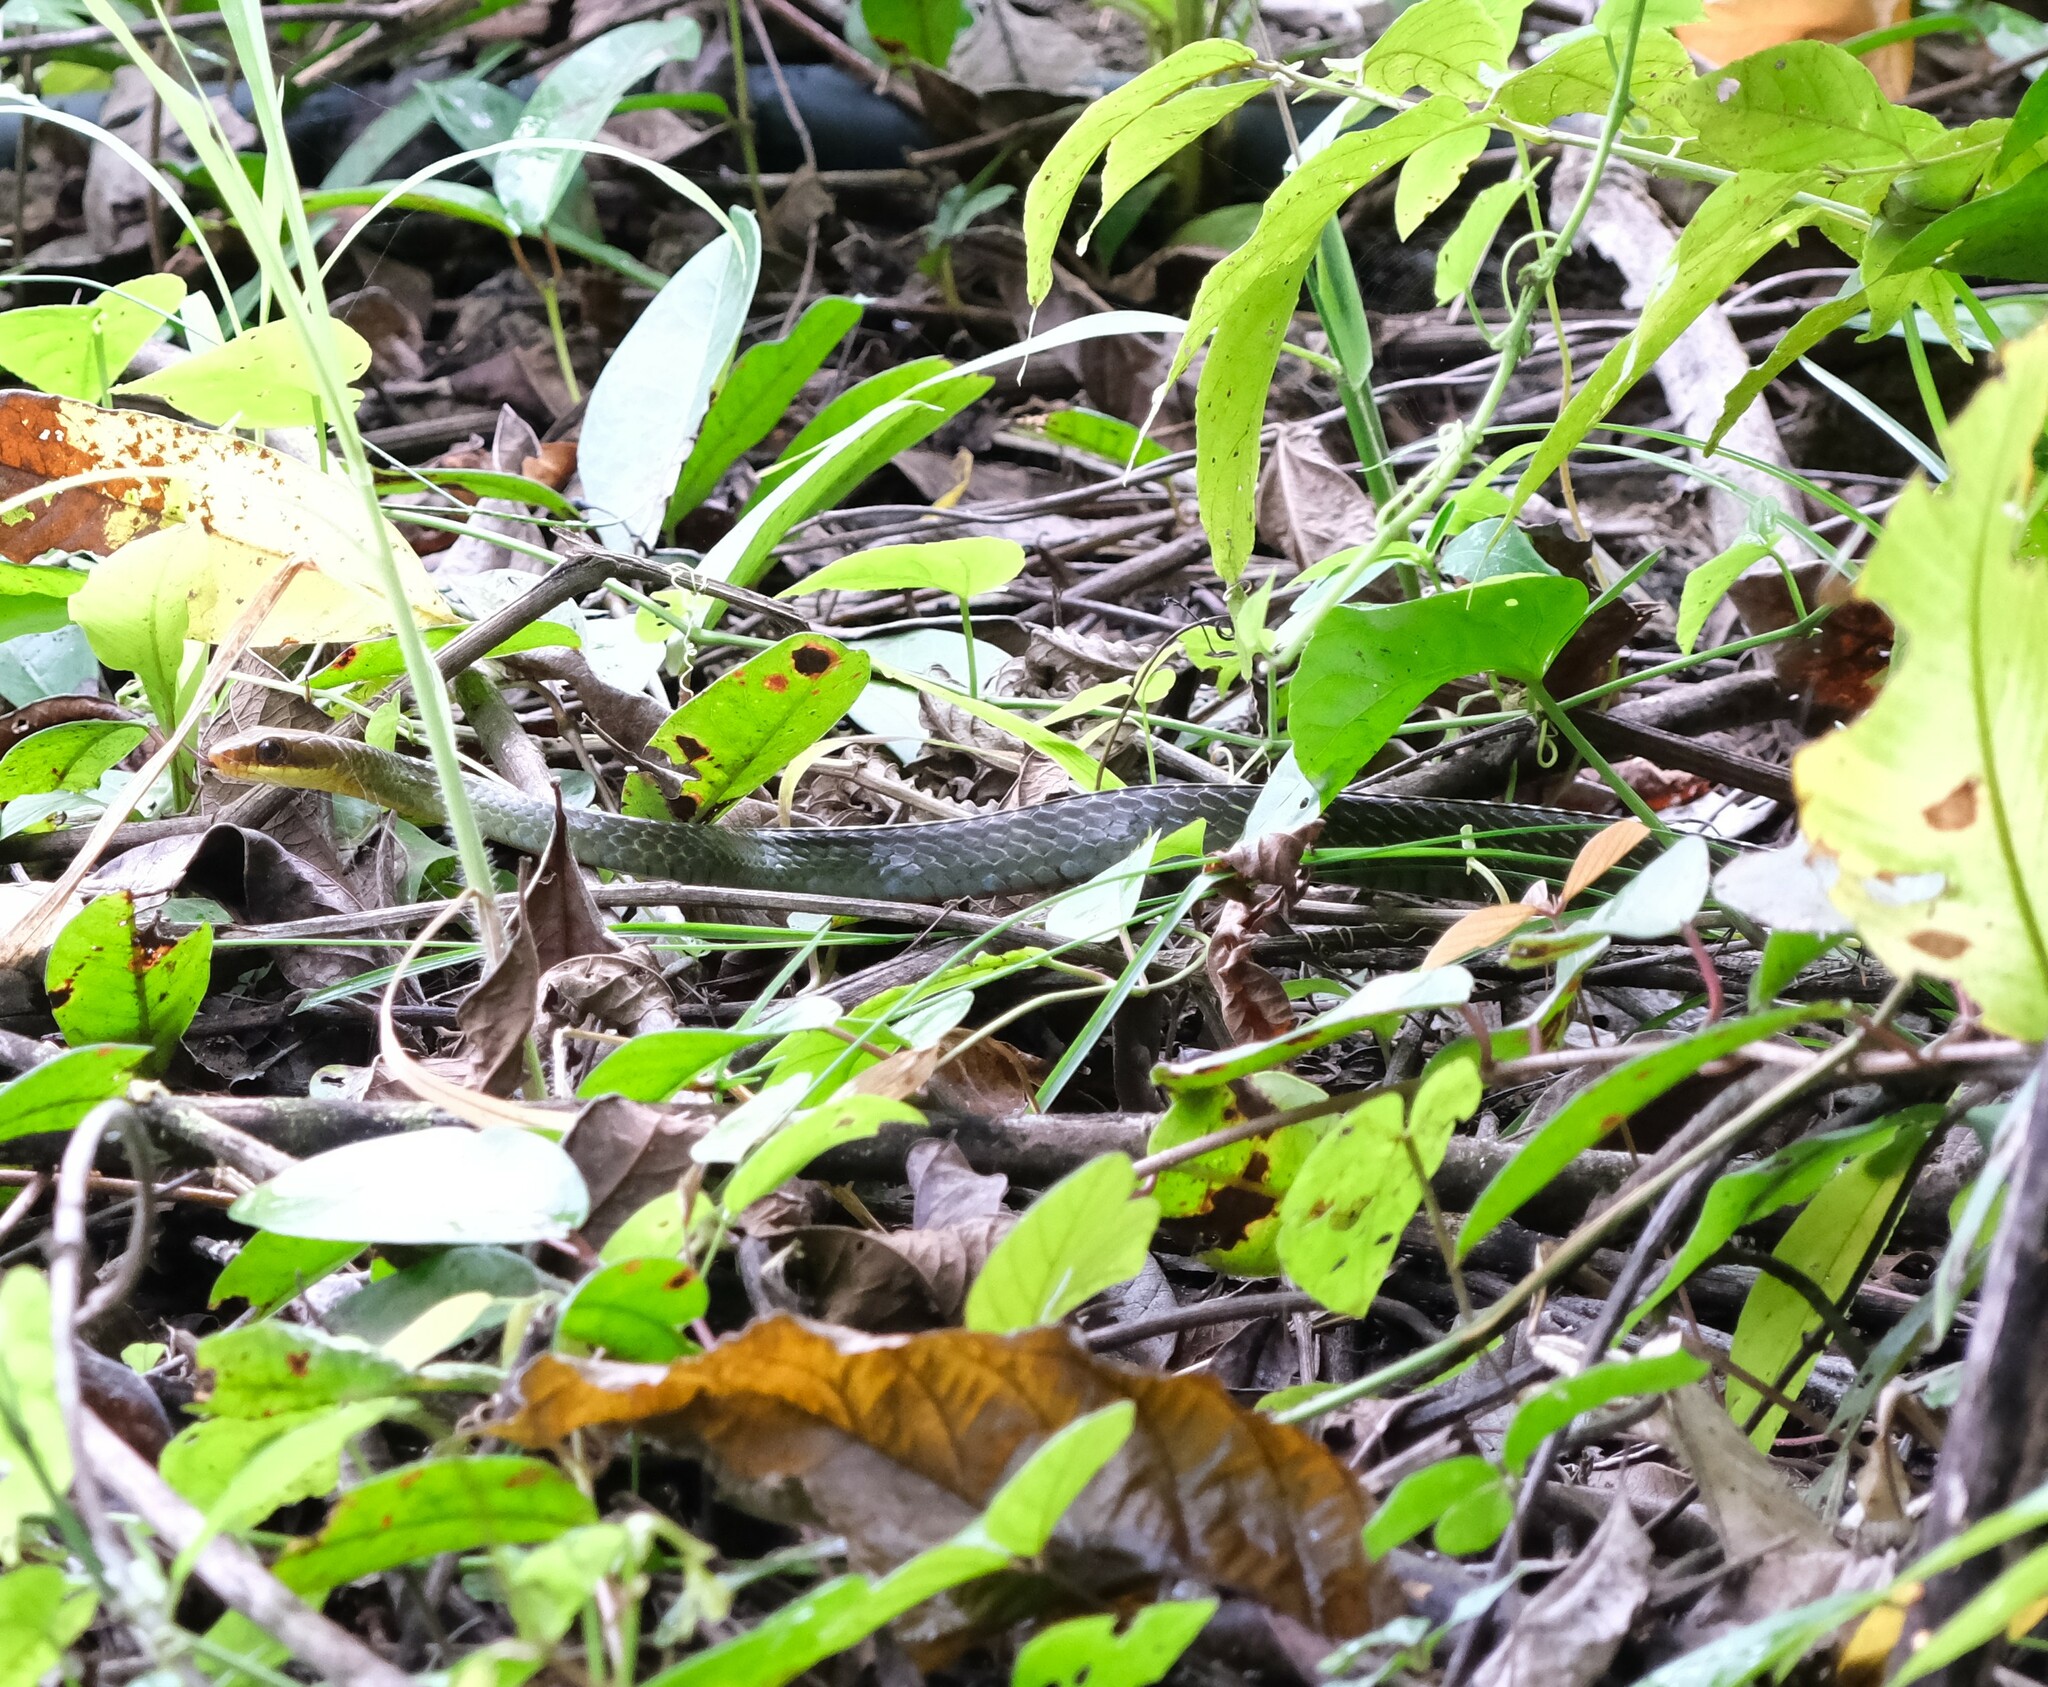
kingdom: Animalia
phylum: Chordata
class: Squamata
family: Colubridae
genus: Chironius
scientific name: Chironius fuscus
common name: Brown sipo
